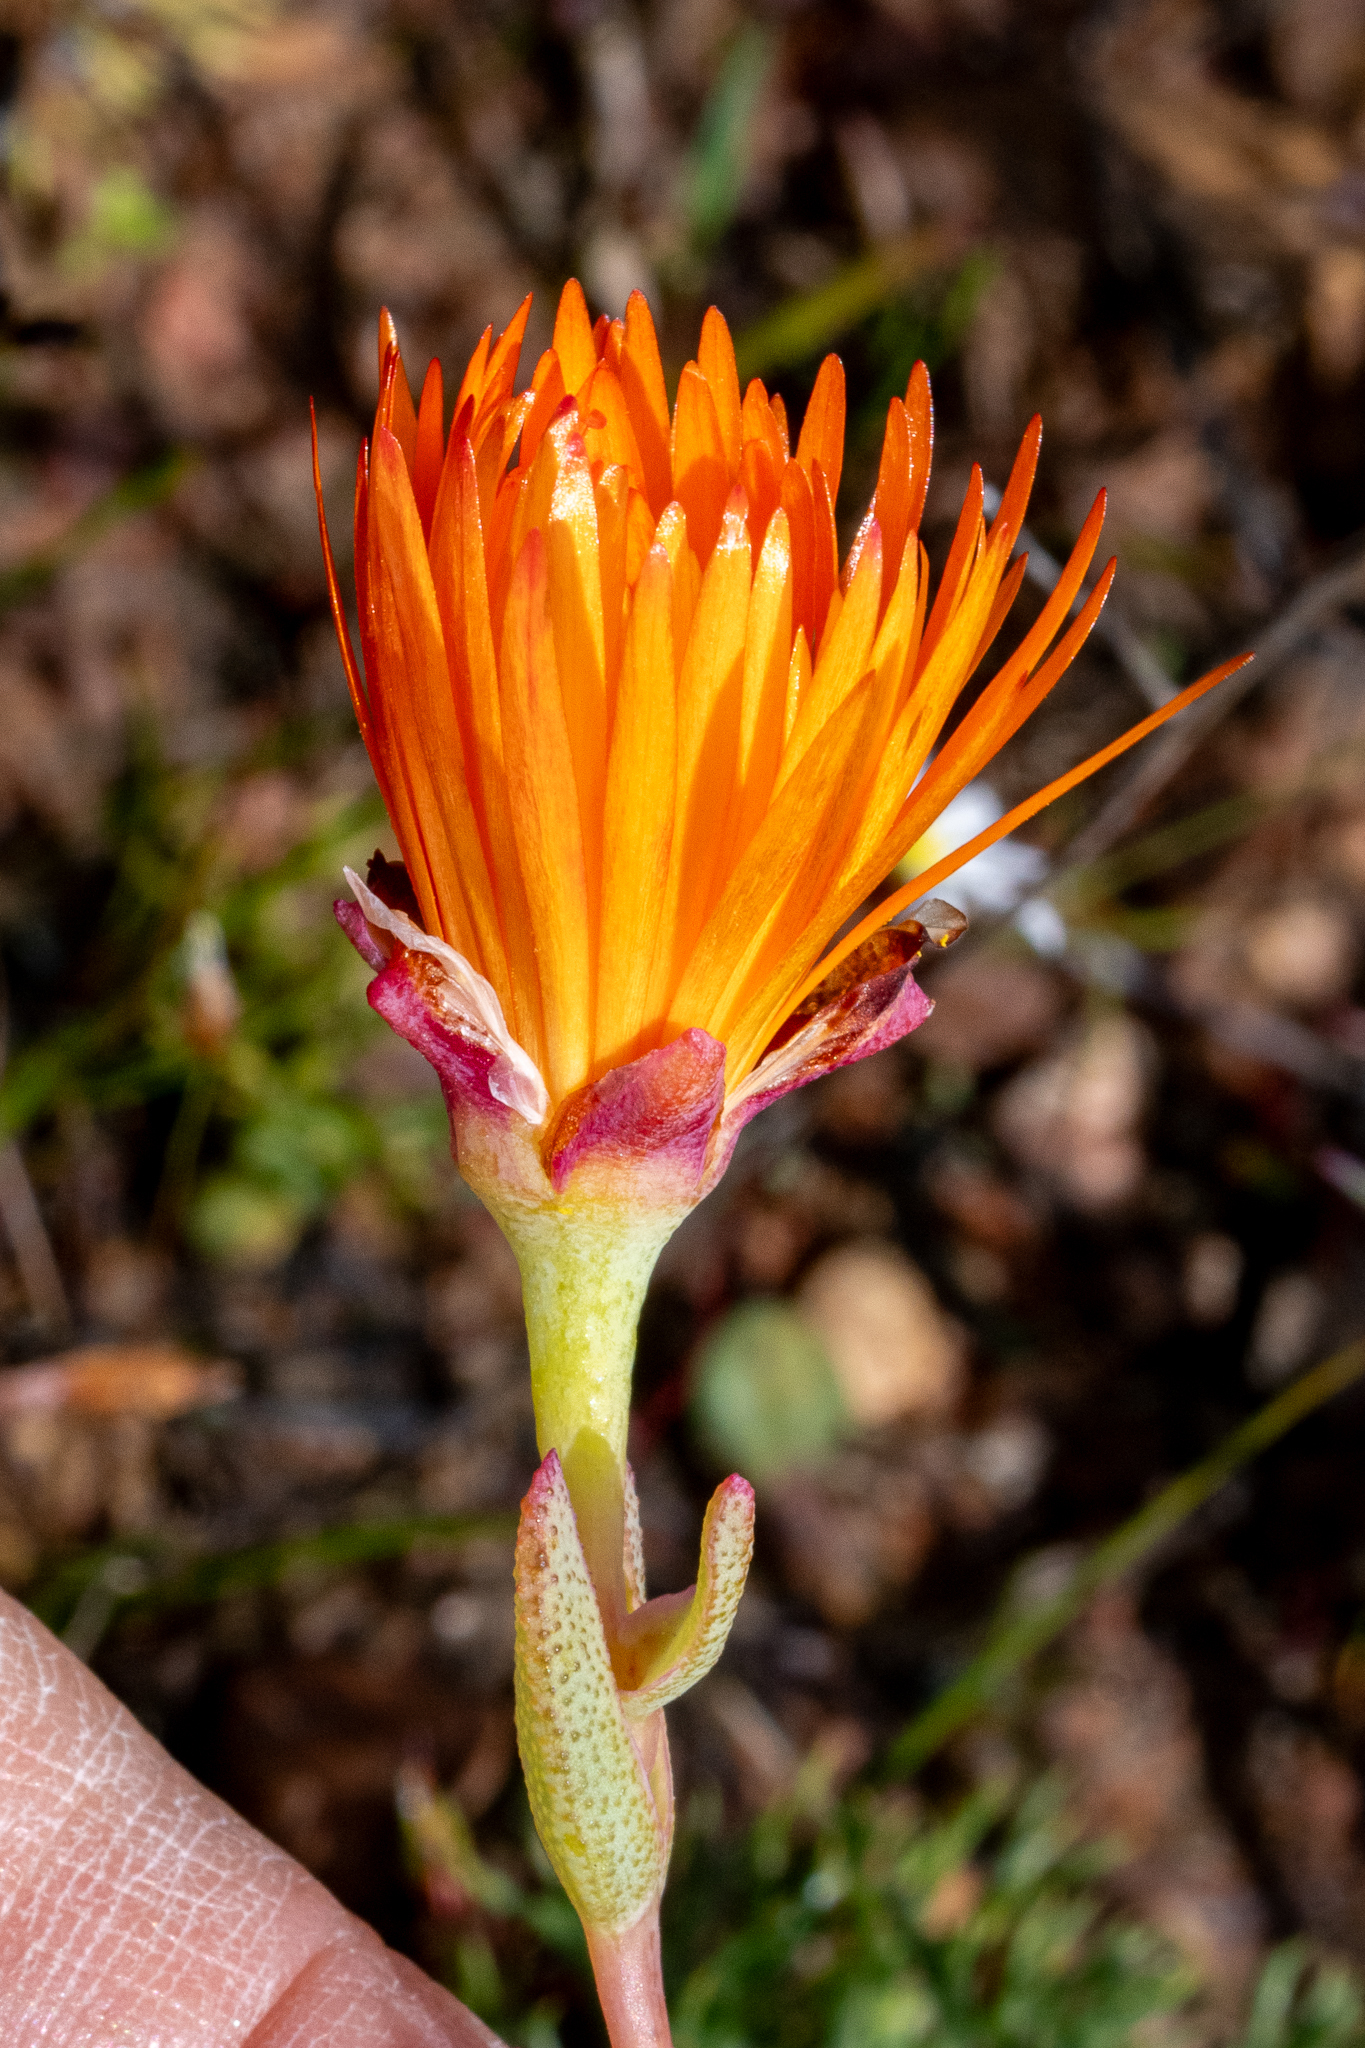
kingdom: Plantae
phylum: Tracheophyta
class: Magnoliopsida
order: Caryophyllales
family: Aizoaceae
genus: Lampranthus
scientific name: Lampranthus glaucus
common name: Noonflower
